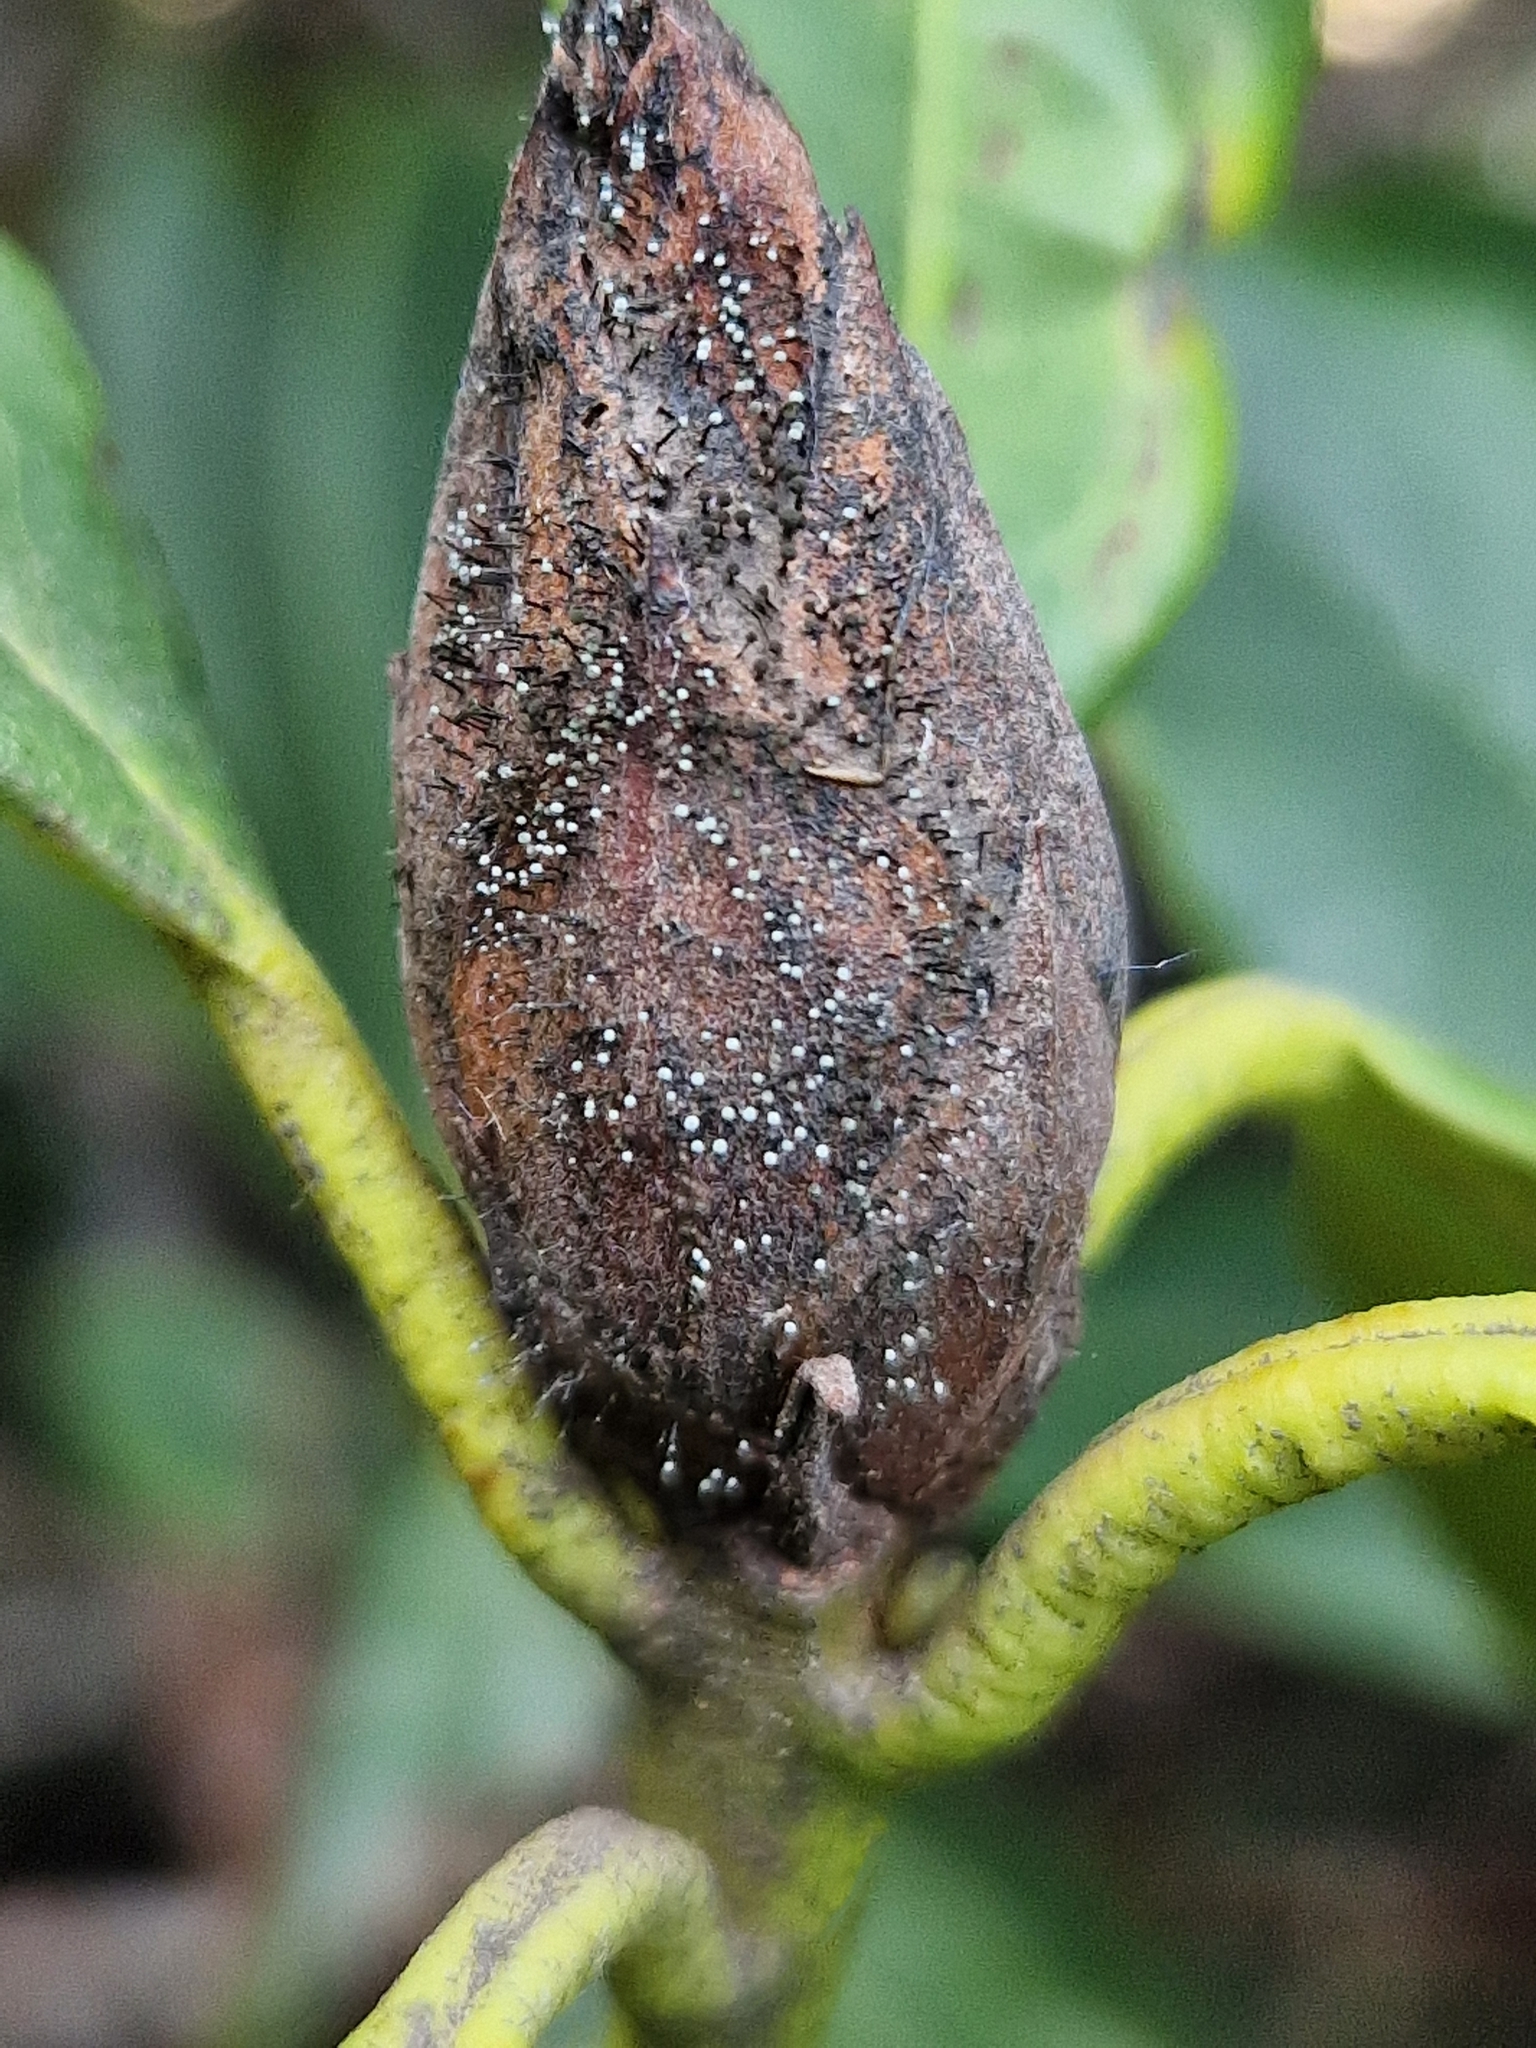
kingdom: Fungi
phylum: Ascomycota
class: Dothideomycetes
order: Pleosporales
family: Melanommataceae
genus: Seifertia
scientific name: Seifertia azaleae
